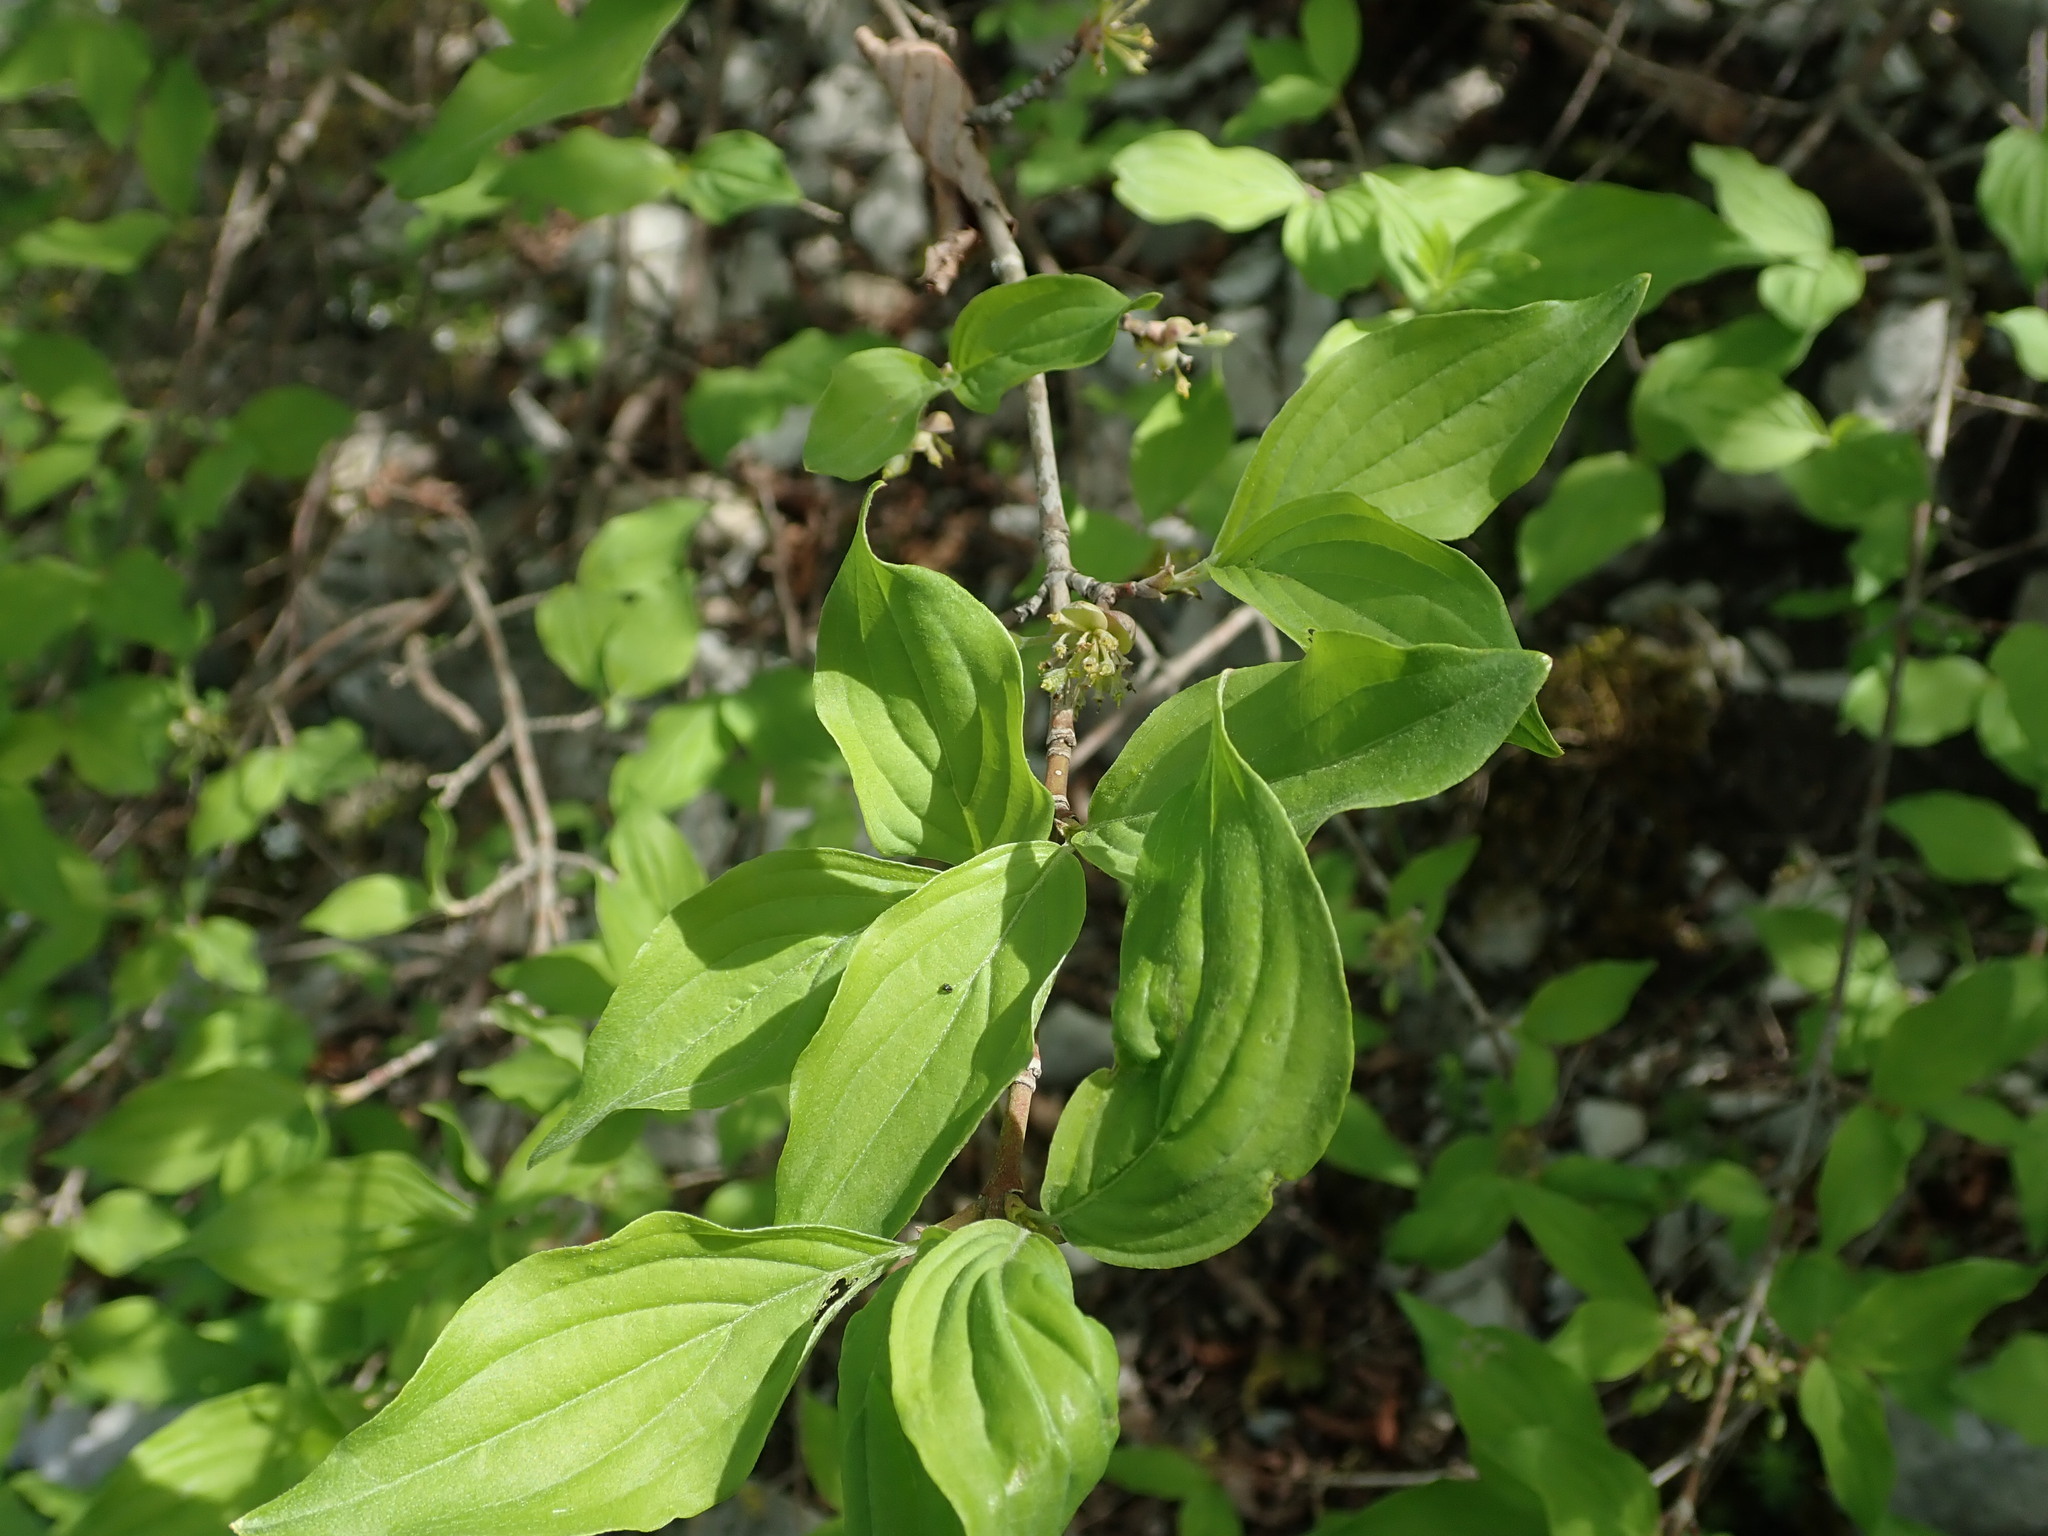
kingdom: Plantae
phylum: Tracheophyta
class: Magnoliopsida
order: Cornales
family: Cornaceae
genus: Cornus
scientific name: Cornus mas
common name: Cornelian-cherry
